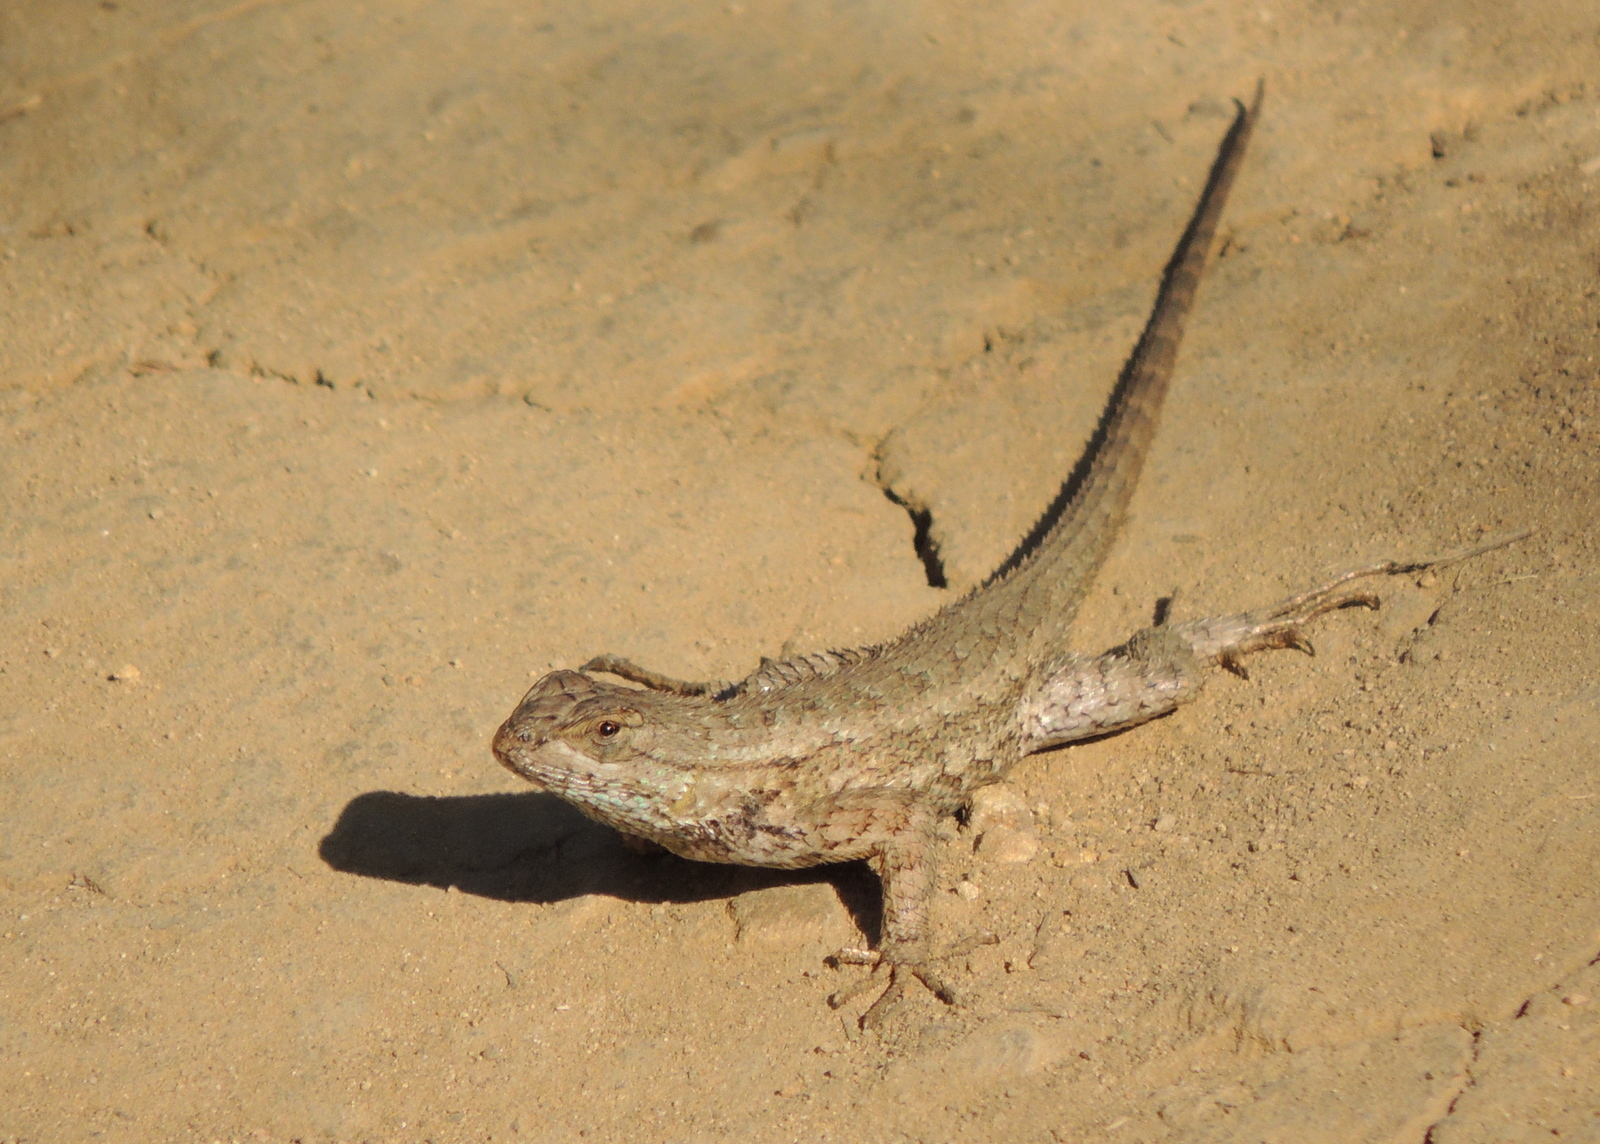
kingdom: Animalia
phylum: Chordata
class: Squamata
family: Phrynosomatidae
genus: Sceloporus
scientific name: Sceloporus occidentalis
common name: Western fence lizard
